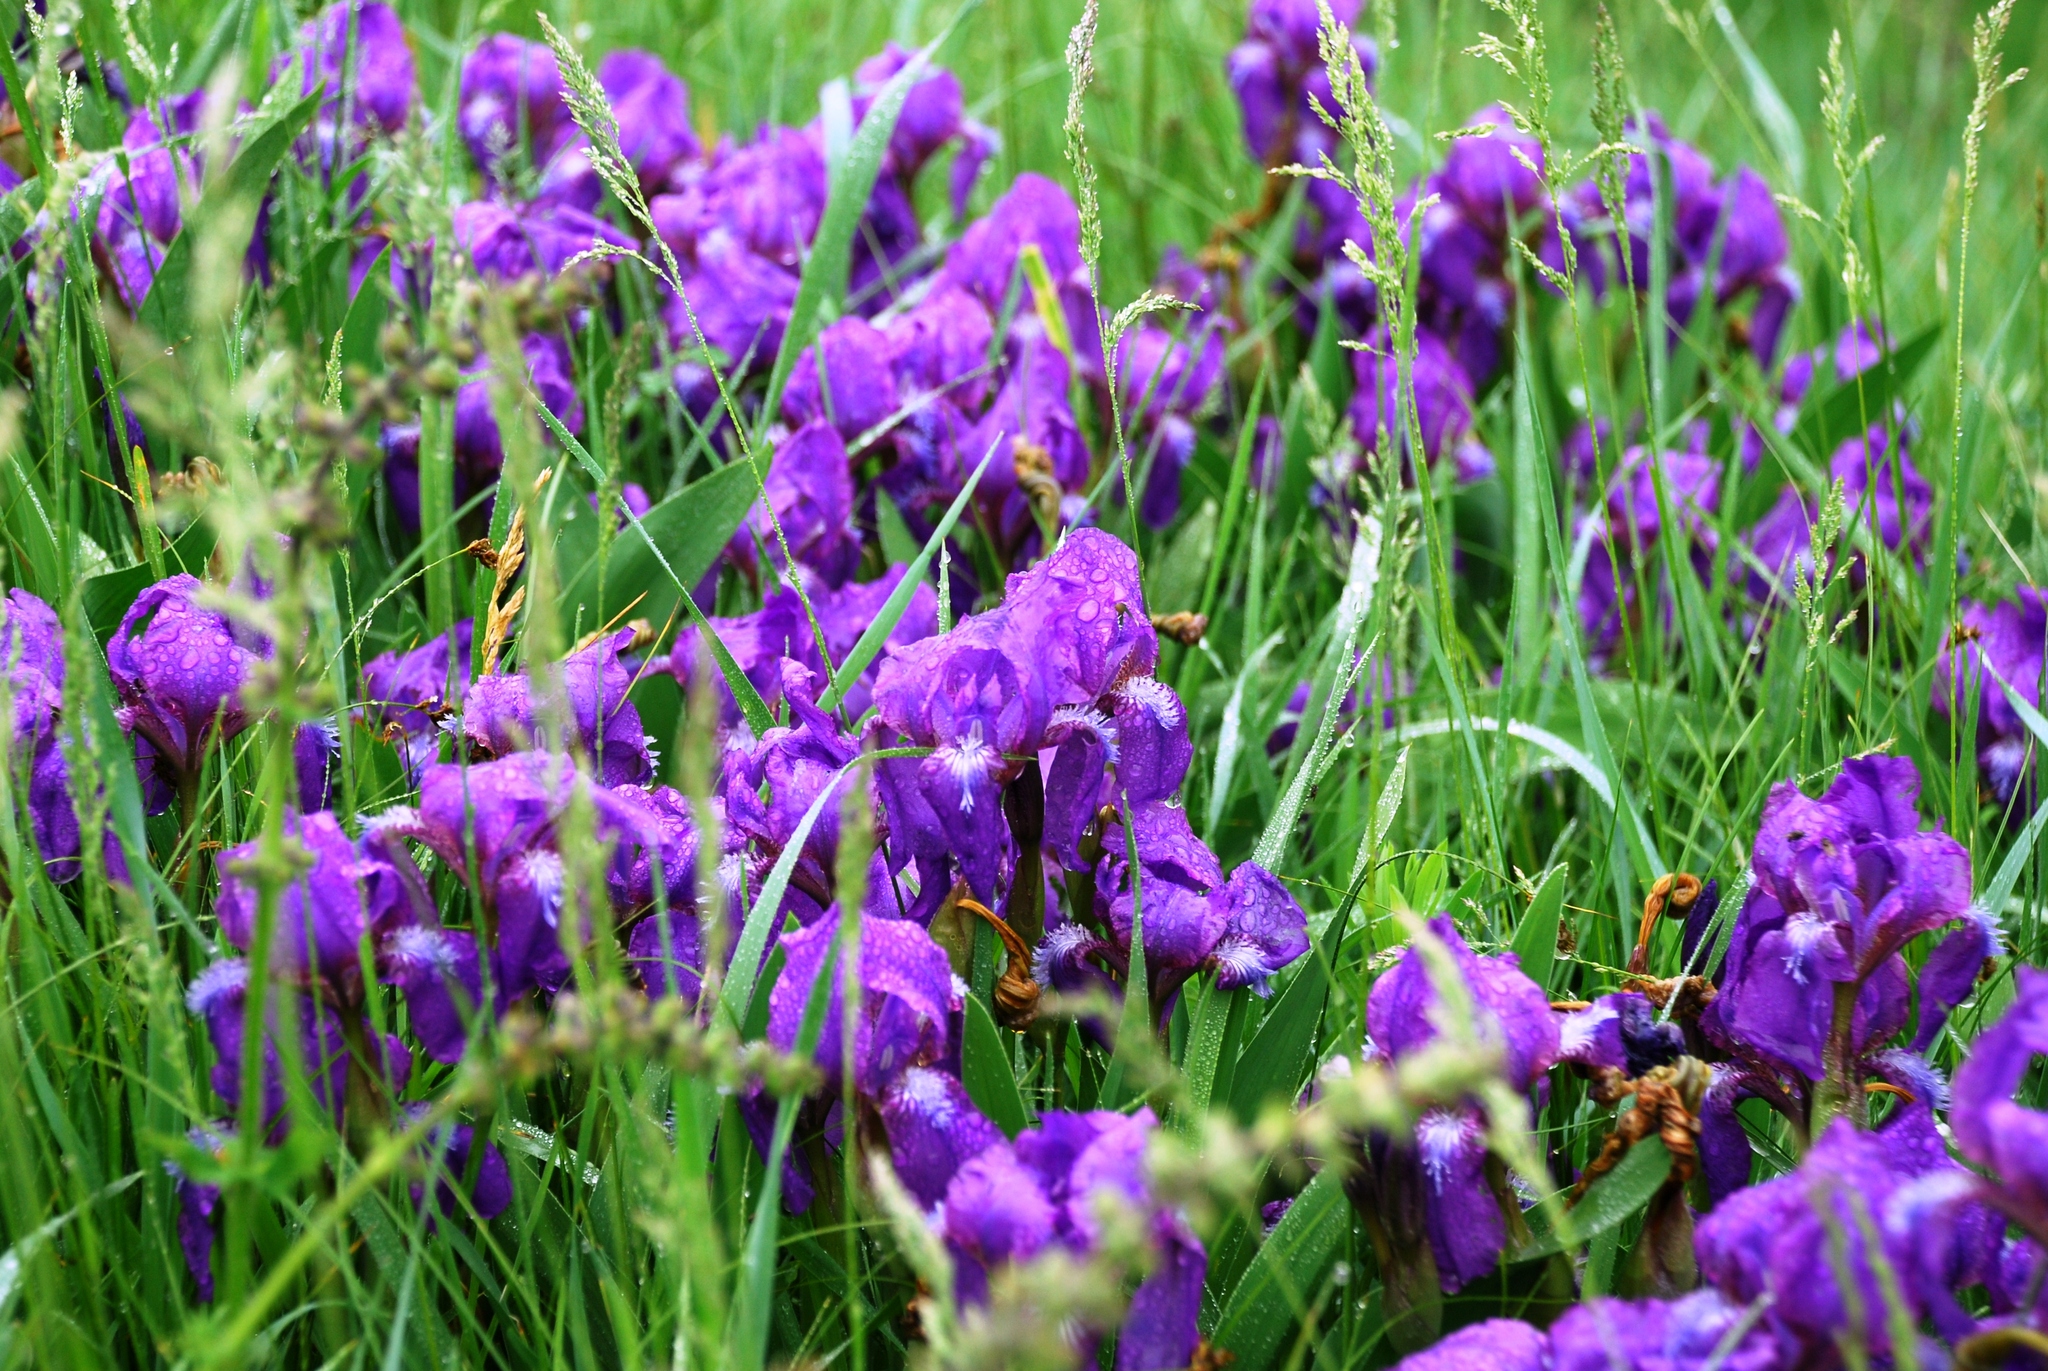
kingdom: Plantae
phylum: Tracheophyta
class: Liliopsida
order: Asparagales
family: Iridaceae
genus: Iris
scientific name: Iris aphylla
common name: Stool iris
